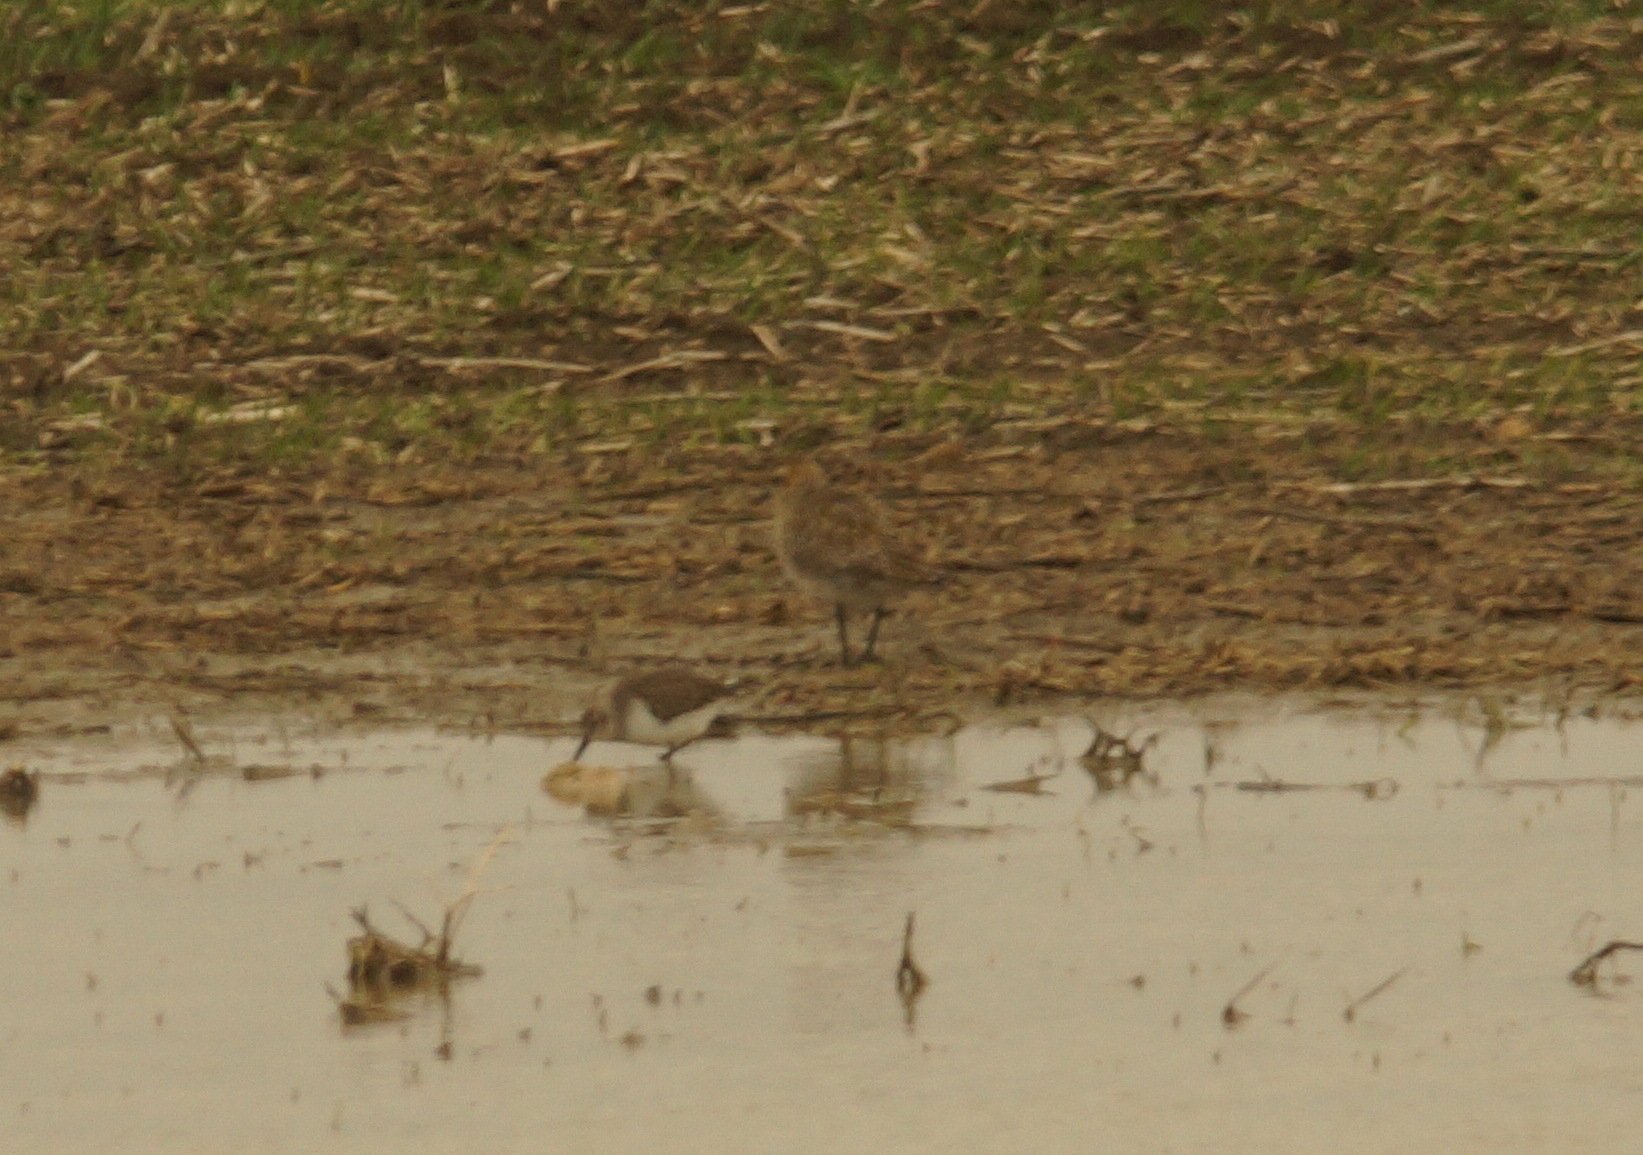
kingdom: Animalia
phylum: Chordata
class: Aves
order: Charadriiformes
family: Scolopacidae
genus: Calidris
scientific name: Calidris alpina
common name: Dunlin
